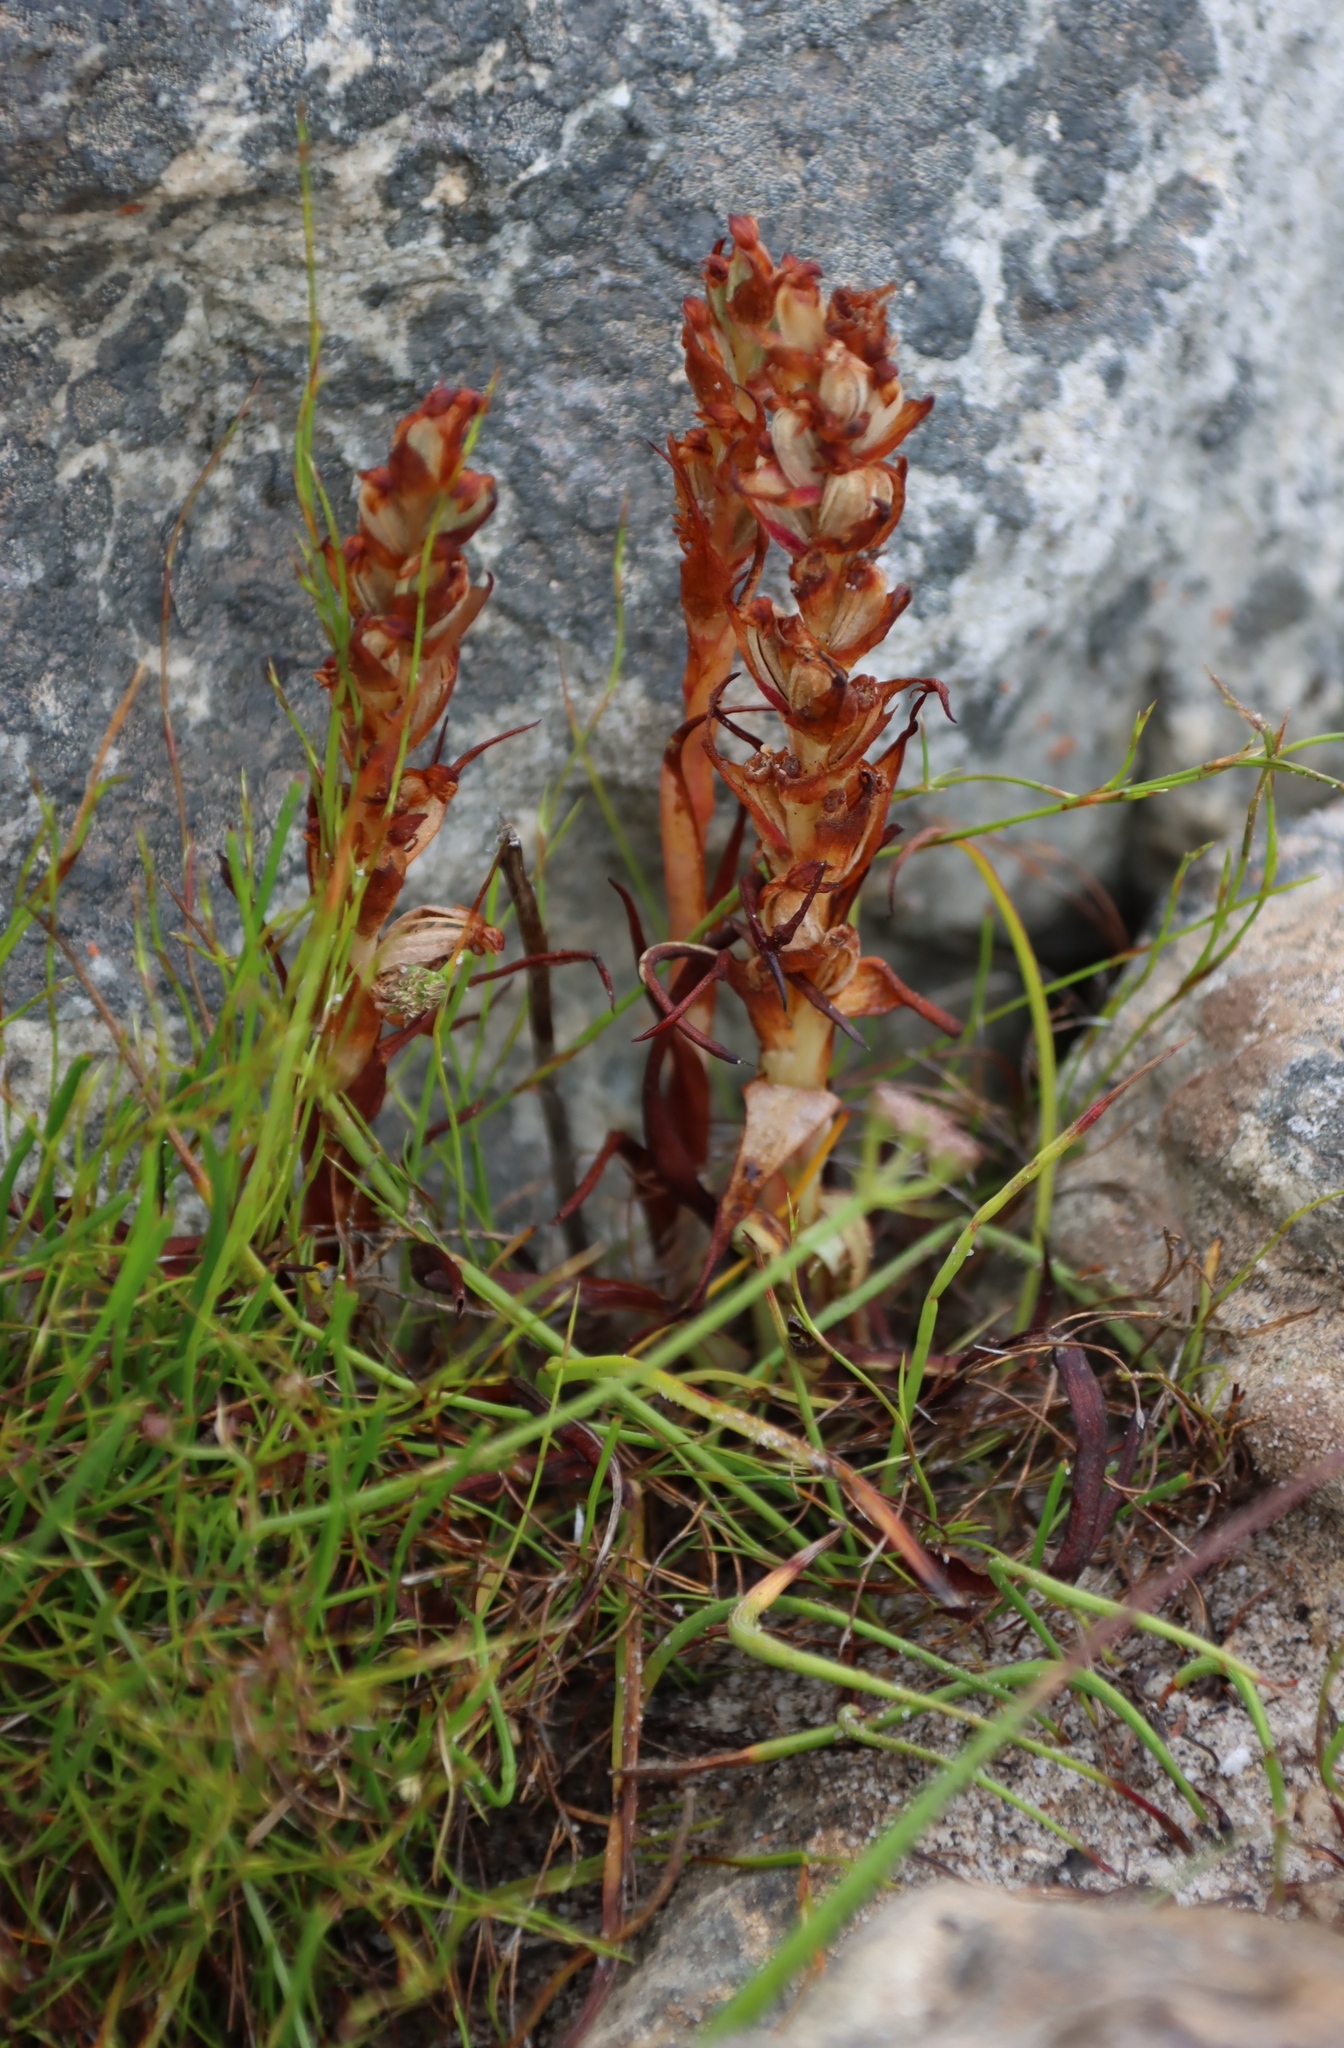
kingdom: Plantae
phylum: Tracheophyta
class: Liliopsida
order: Asparagales
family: Orchidaceae
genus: Disa
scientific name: Disa bracteata
